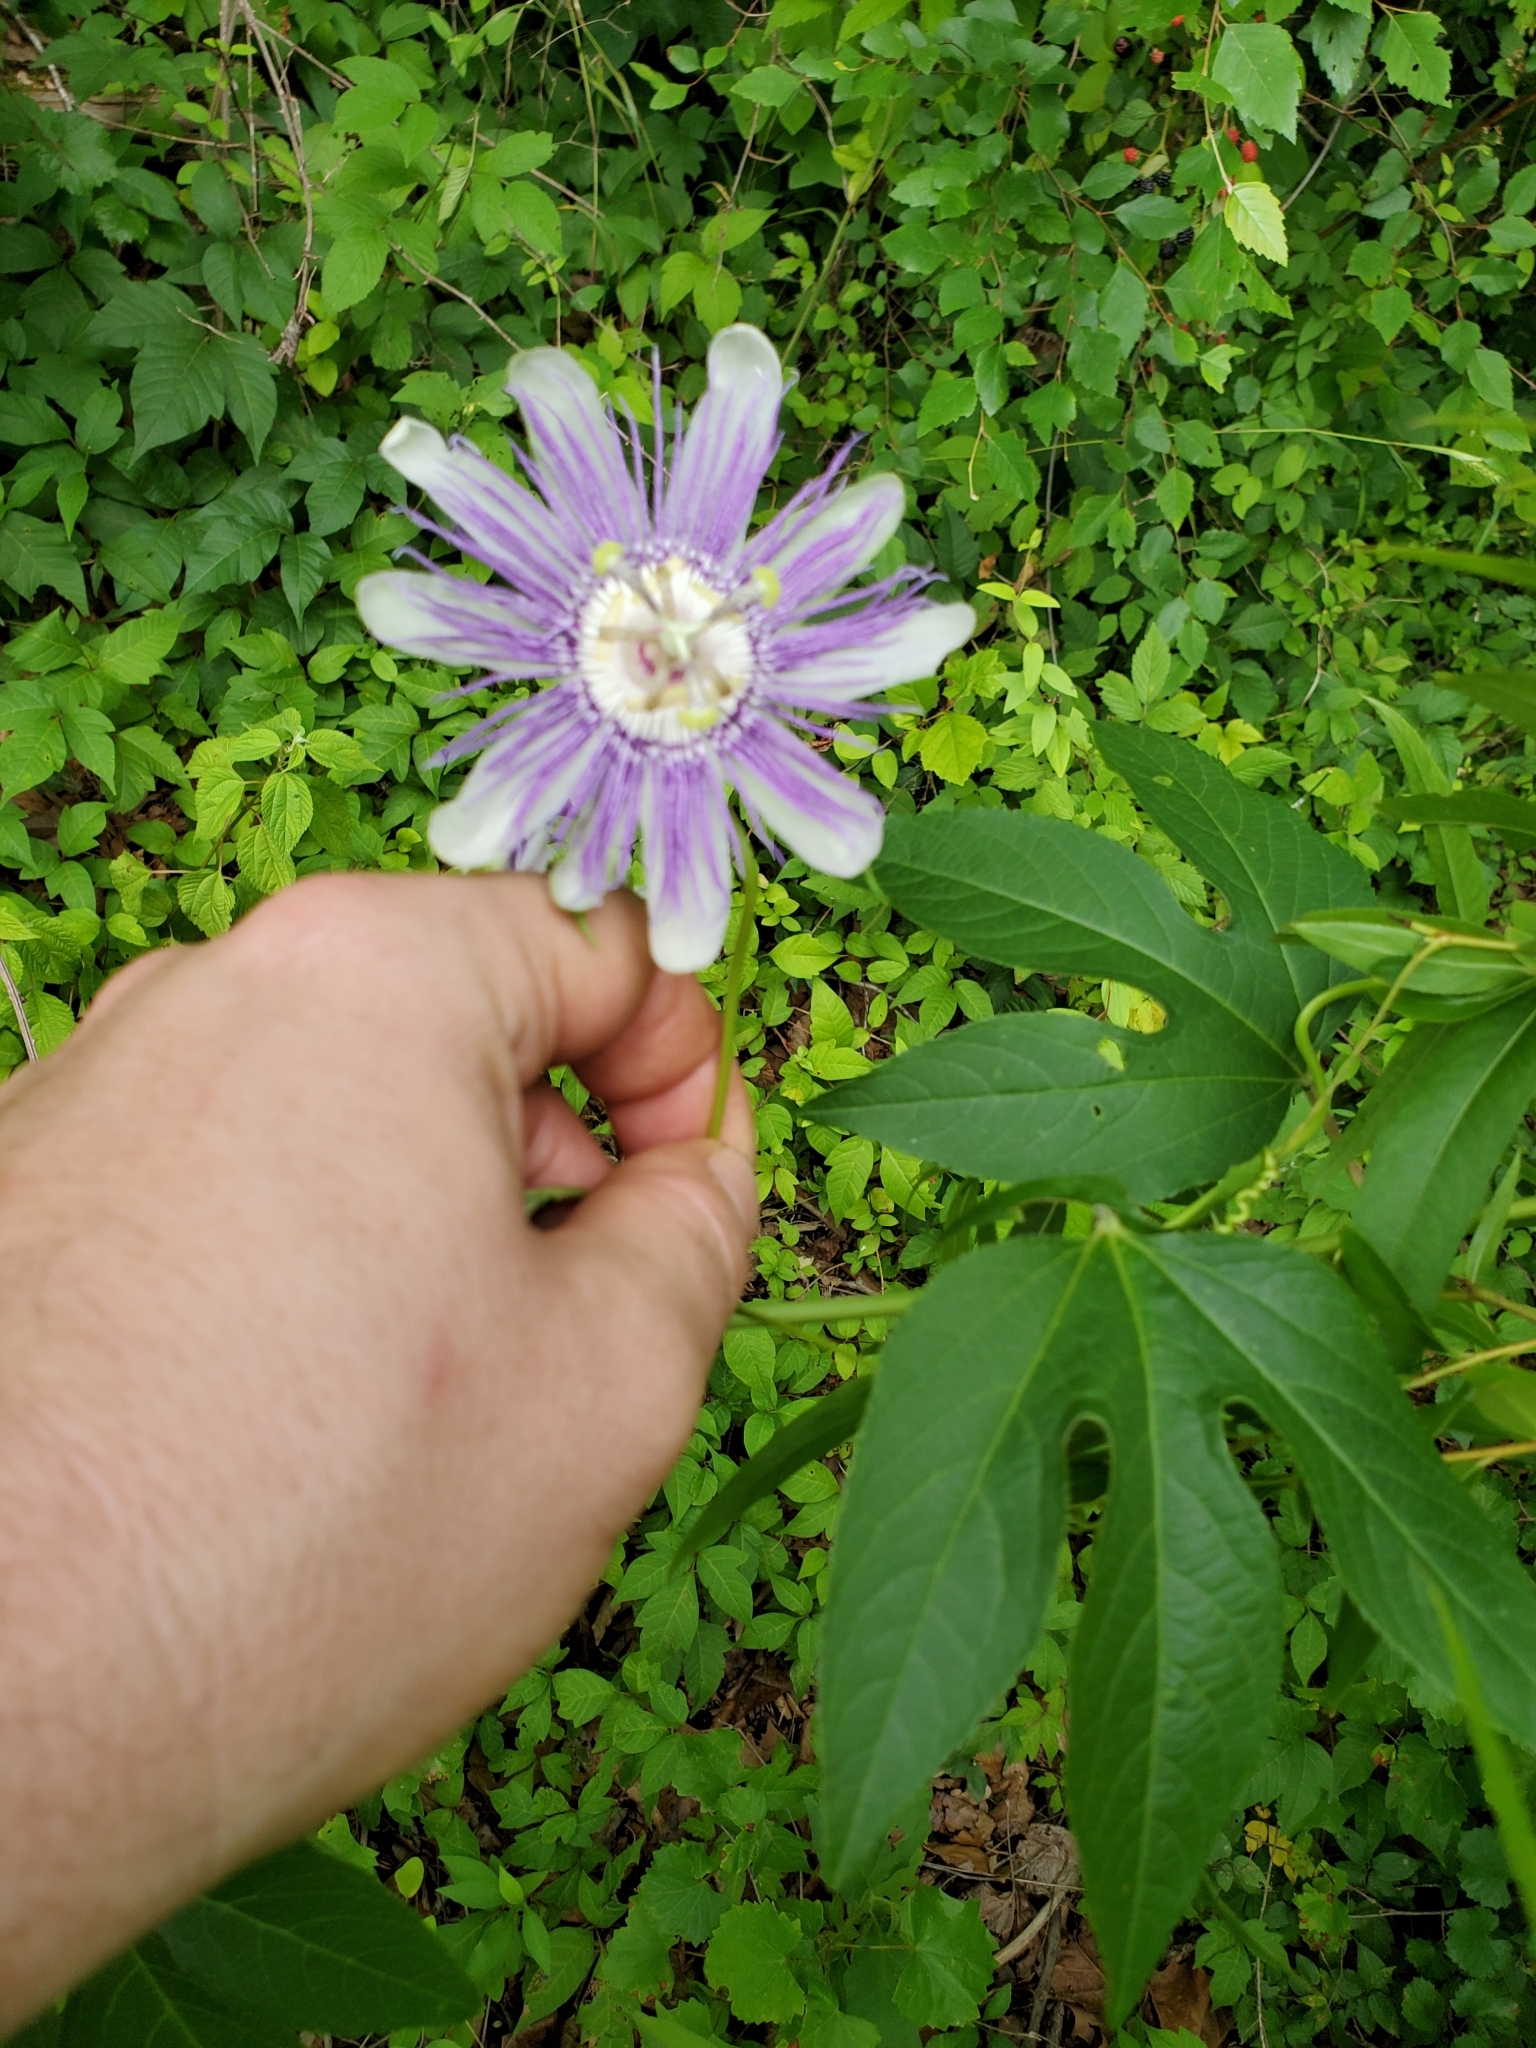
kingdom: Plantae
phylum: Tracheophyta
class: Magnoliopsida
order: Malpighiales
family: Passifloraceae
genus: Passiflora
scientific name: Passiflora incarnata
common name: Apricot-vine
